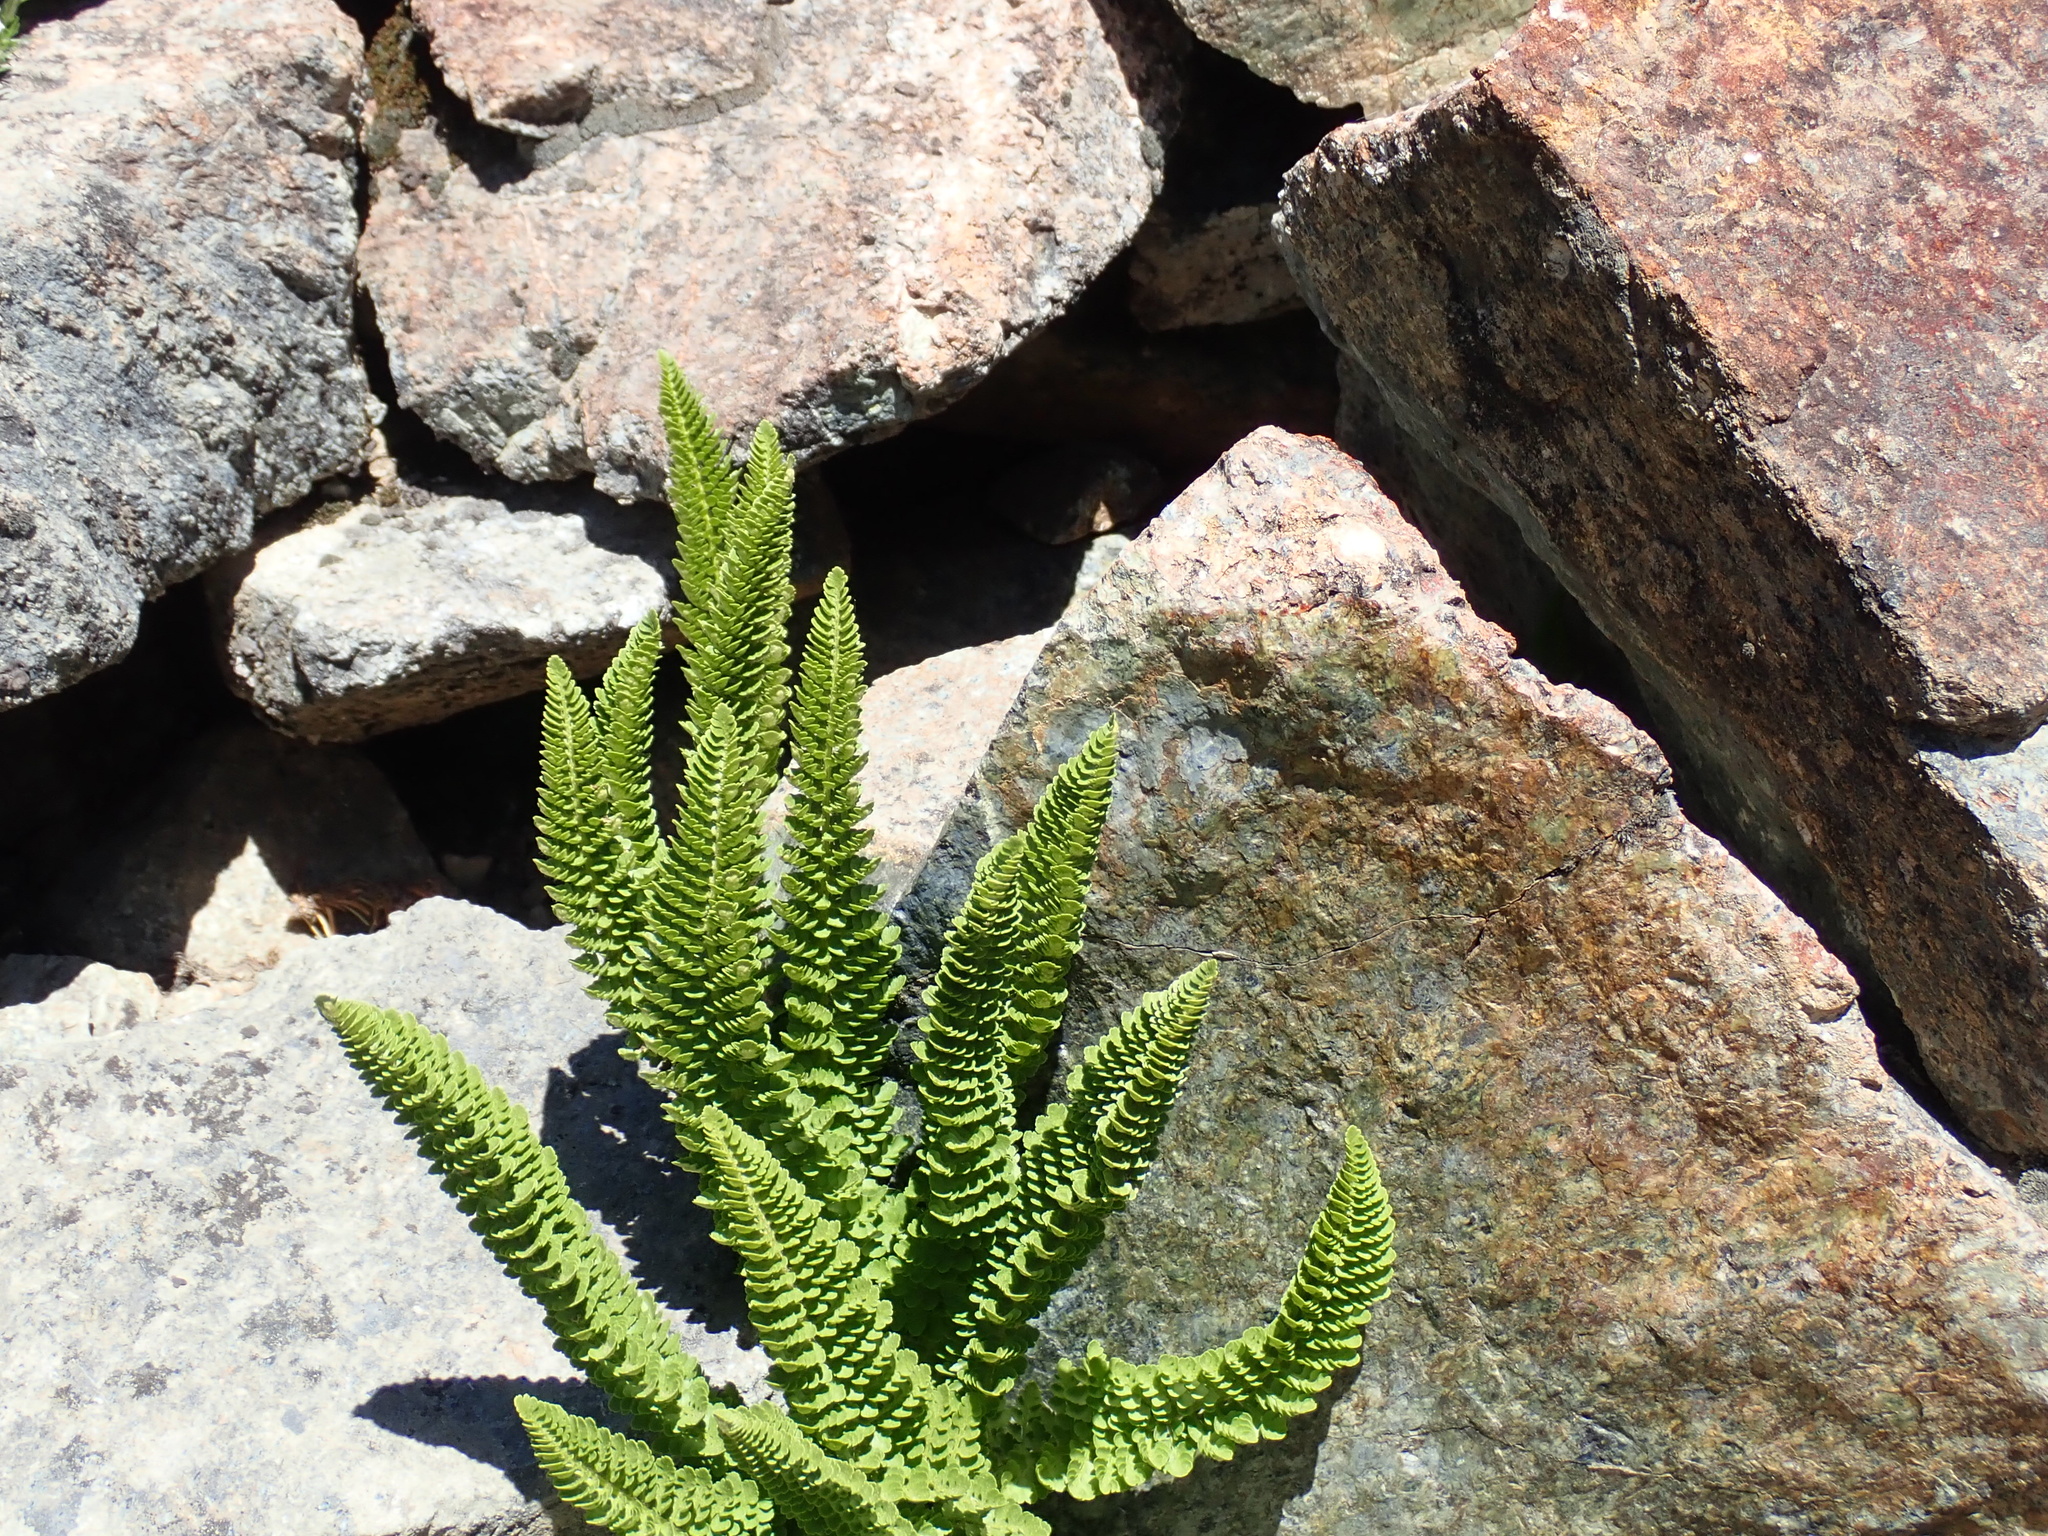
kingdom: Plantae
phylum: Tracheophyta
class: Polypodiopsida
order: Polypodiales
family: Dryopteridaceae
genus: Polystichum
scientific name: Polystichum lemmonii
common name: Lemmon's holly fern
